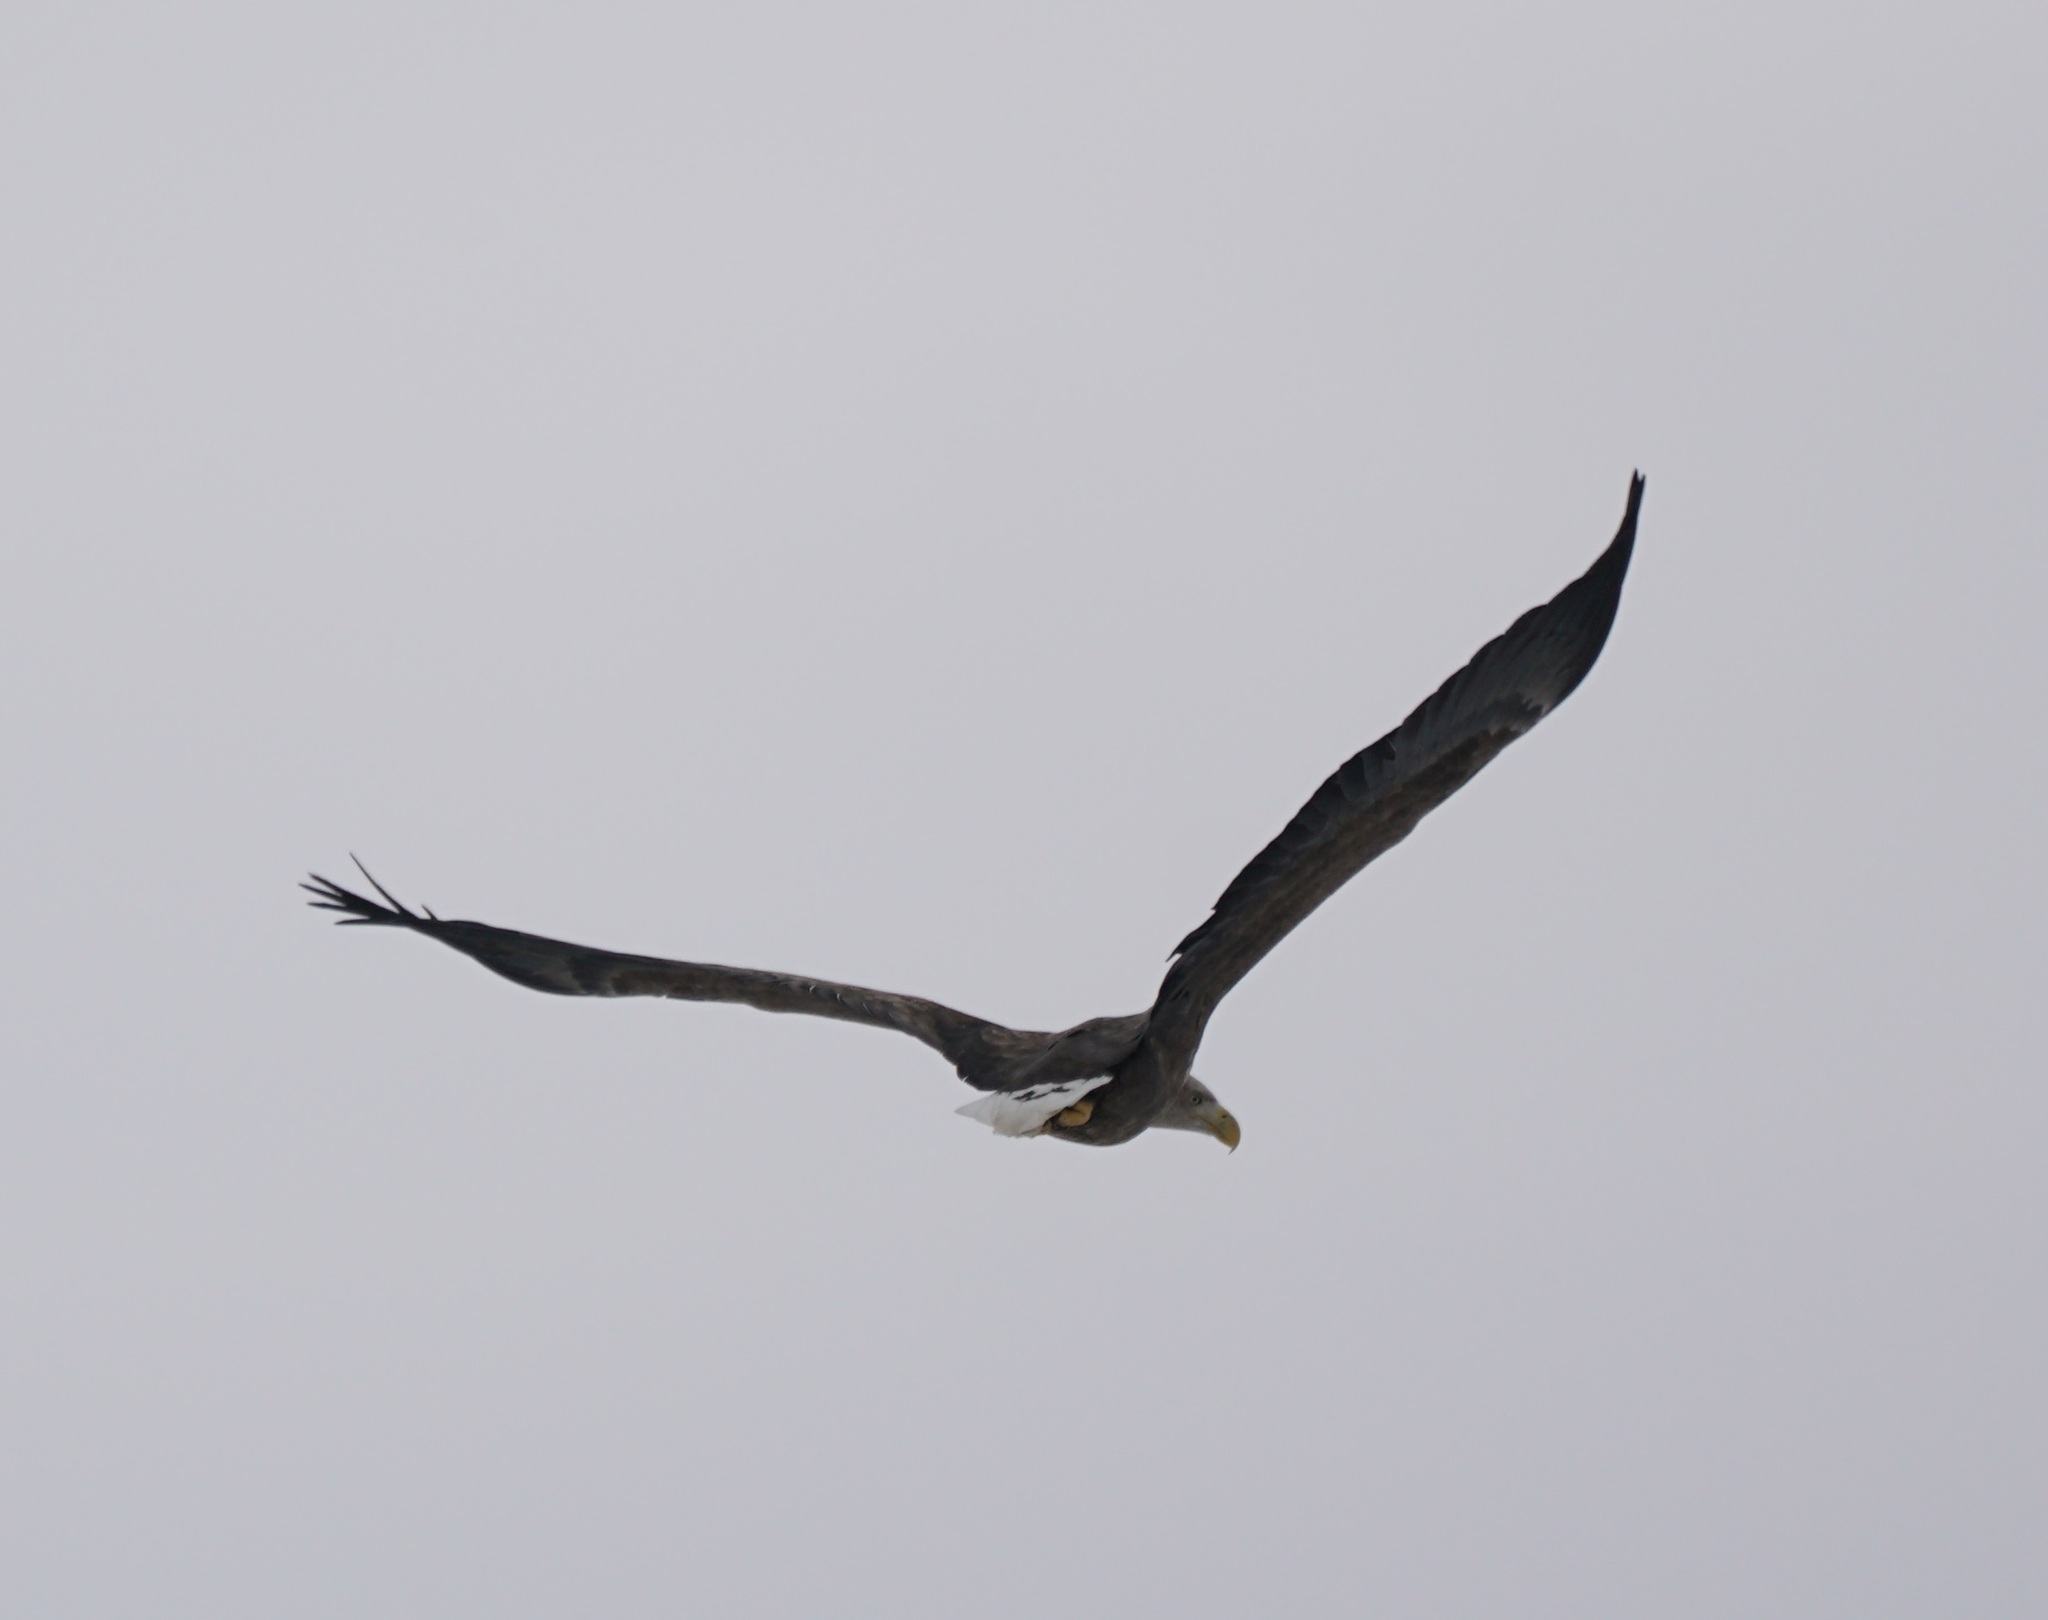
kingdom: Animalia
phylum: Chordata
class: Aves
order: Accipitriformes
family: Accipitridae
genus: Haliaeetus
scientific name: Haliaeetus albicilla
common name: White-tailed eagle
